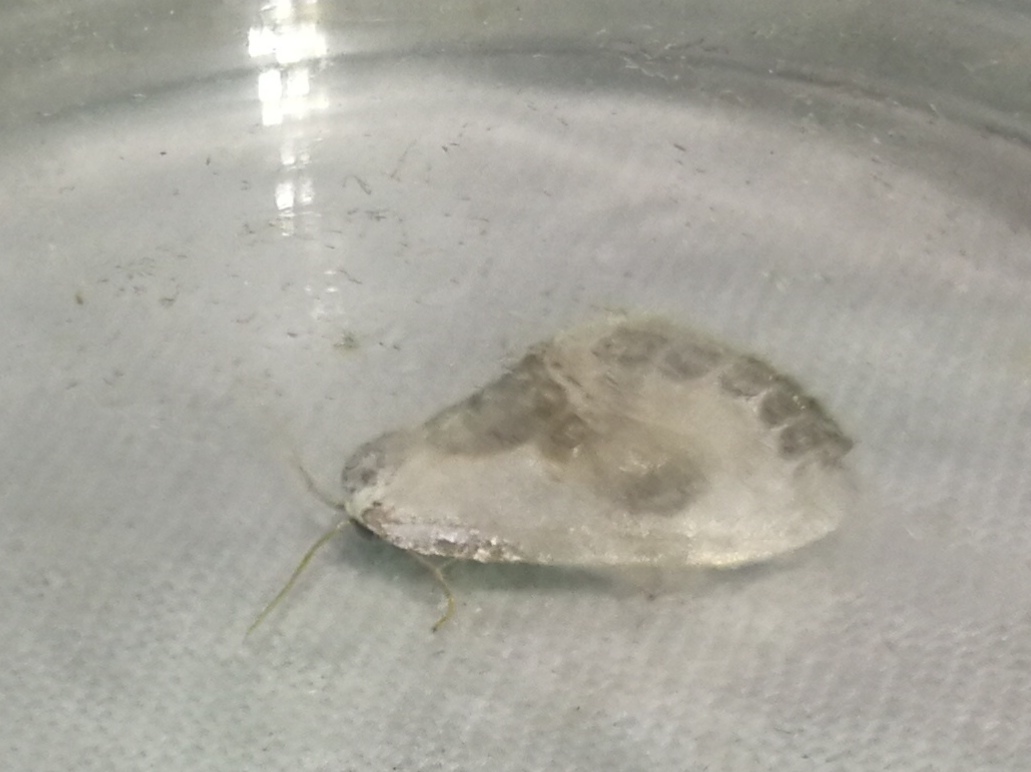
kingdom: Animalia
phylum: Arthropoda
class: Insecta
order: Lepidoptera
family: Drepanidae
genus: Cilix
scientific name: Cilix glaucata
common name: Chinese character
